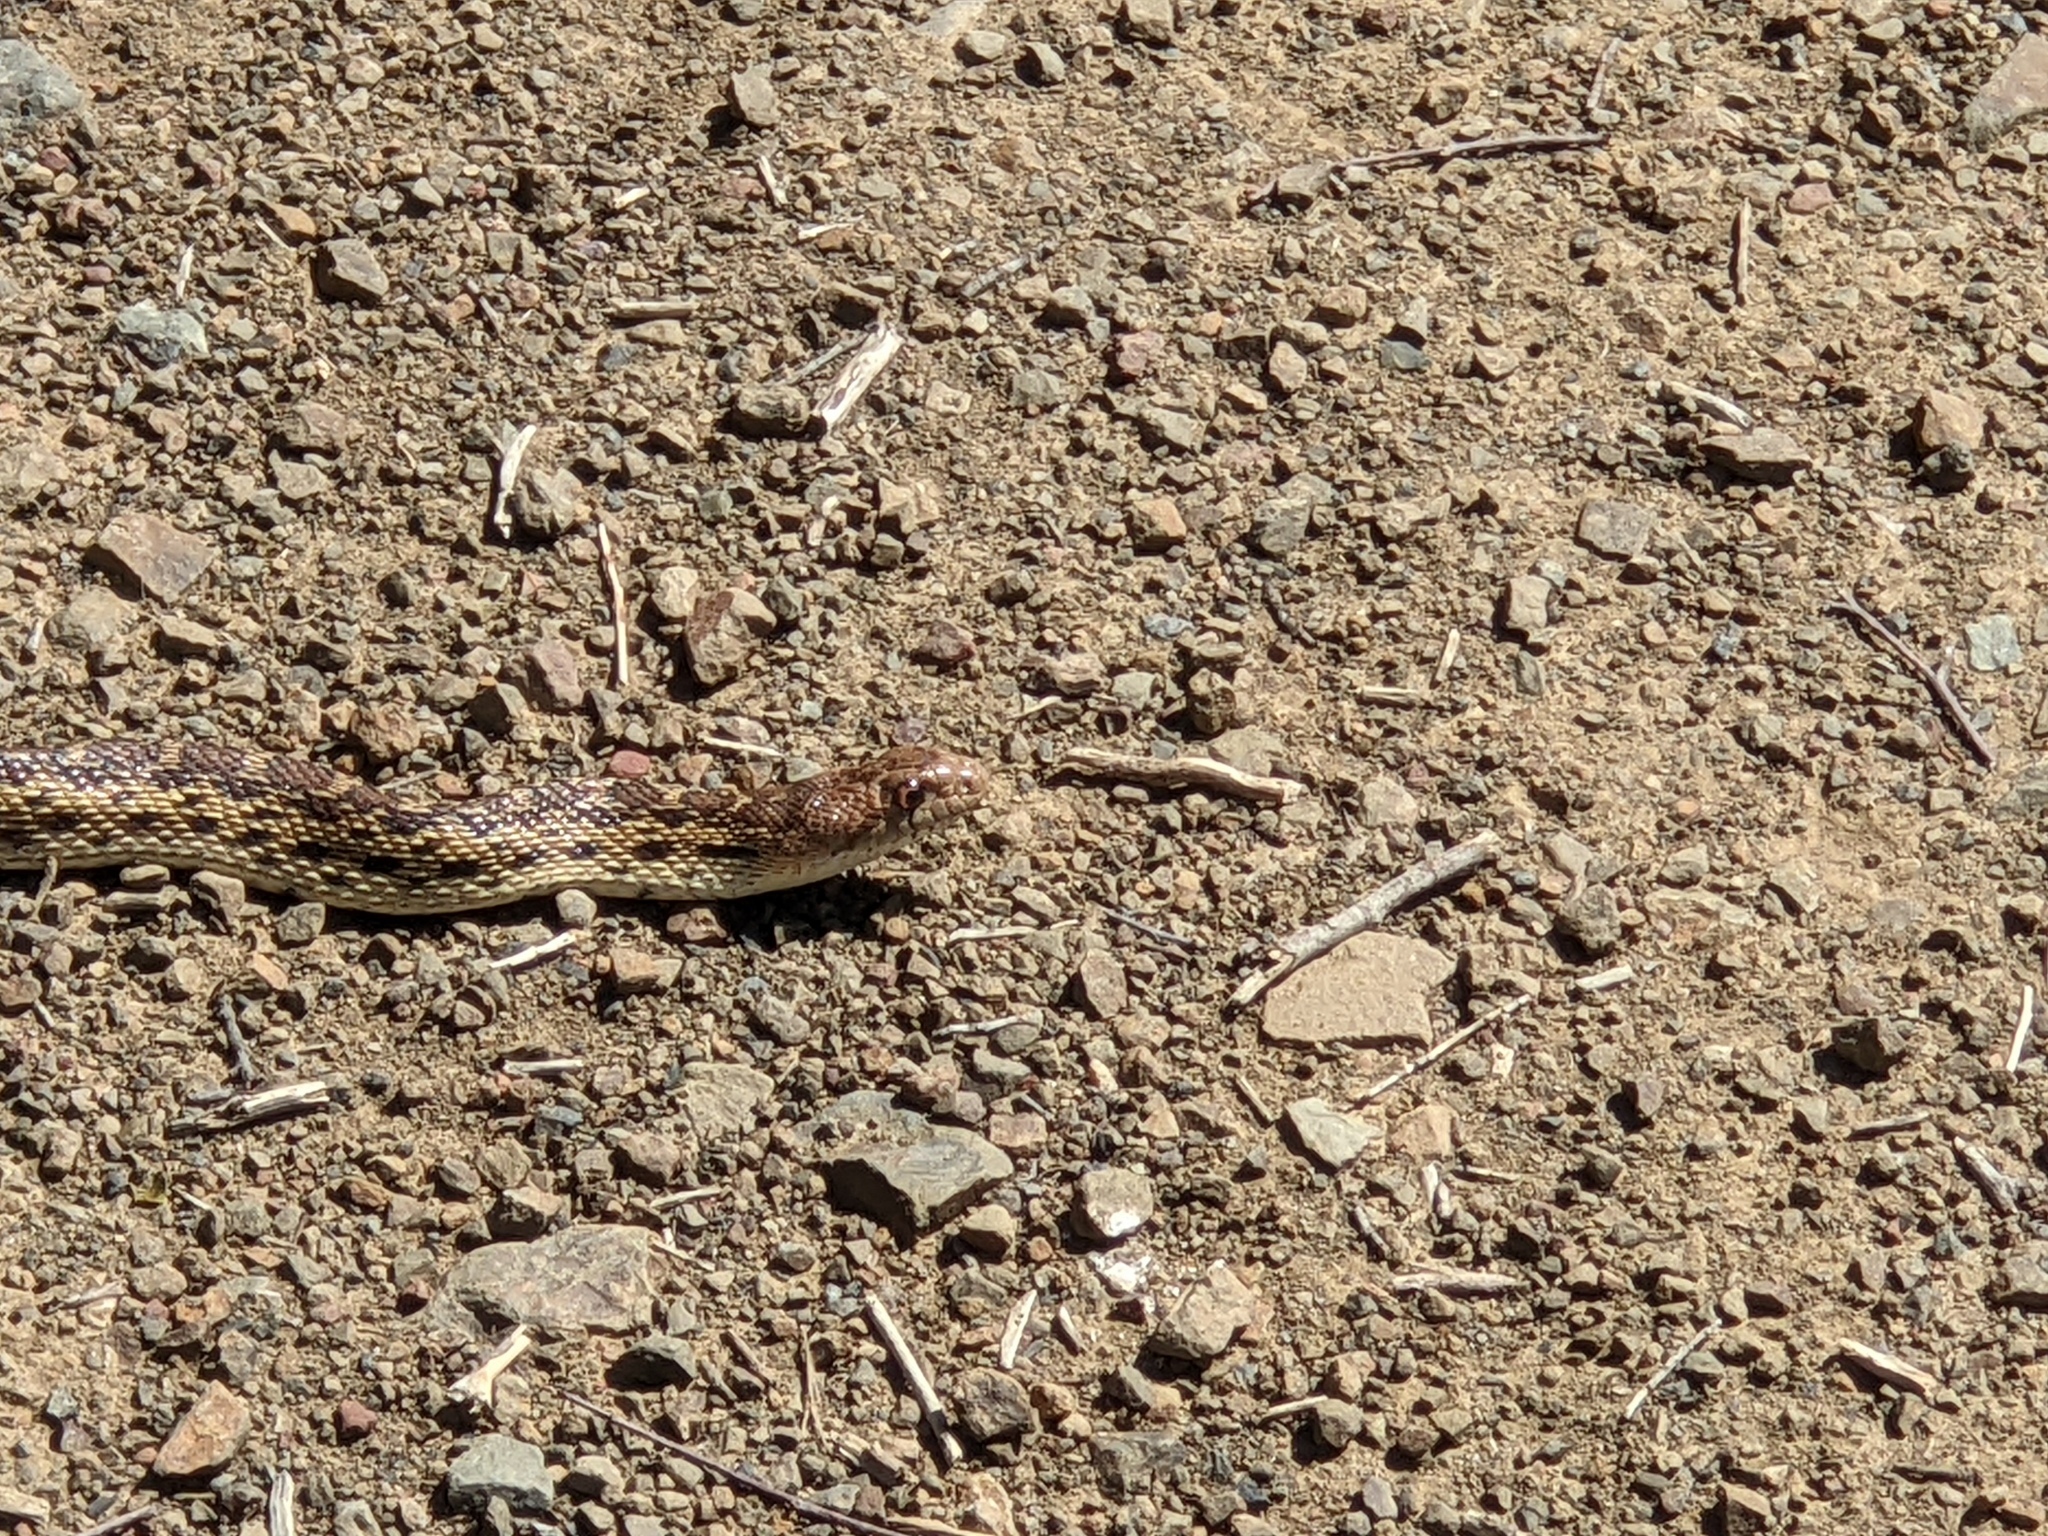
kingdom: Animalia
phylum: Chordata
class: Squamata
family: Colubridae
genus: Pituophis
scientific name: Pituophis catenifer
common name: Gopher snake
